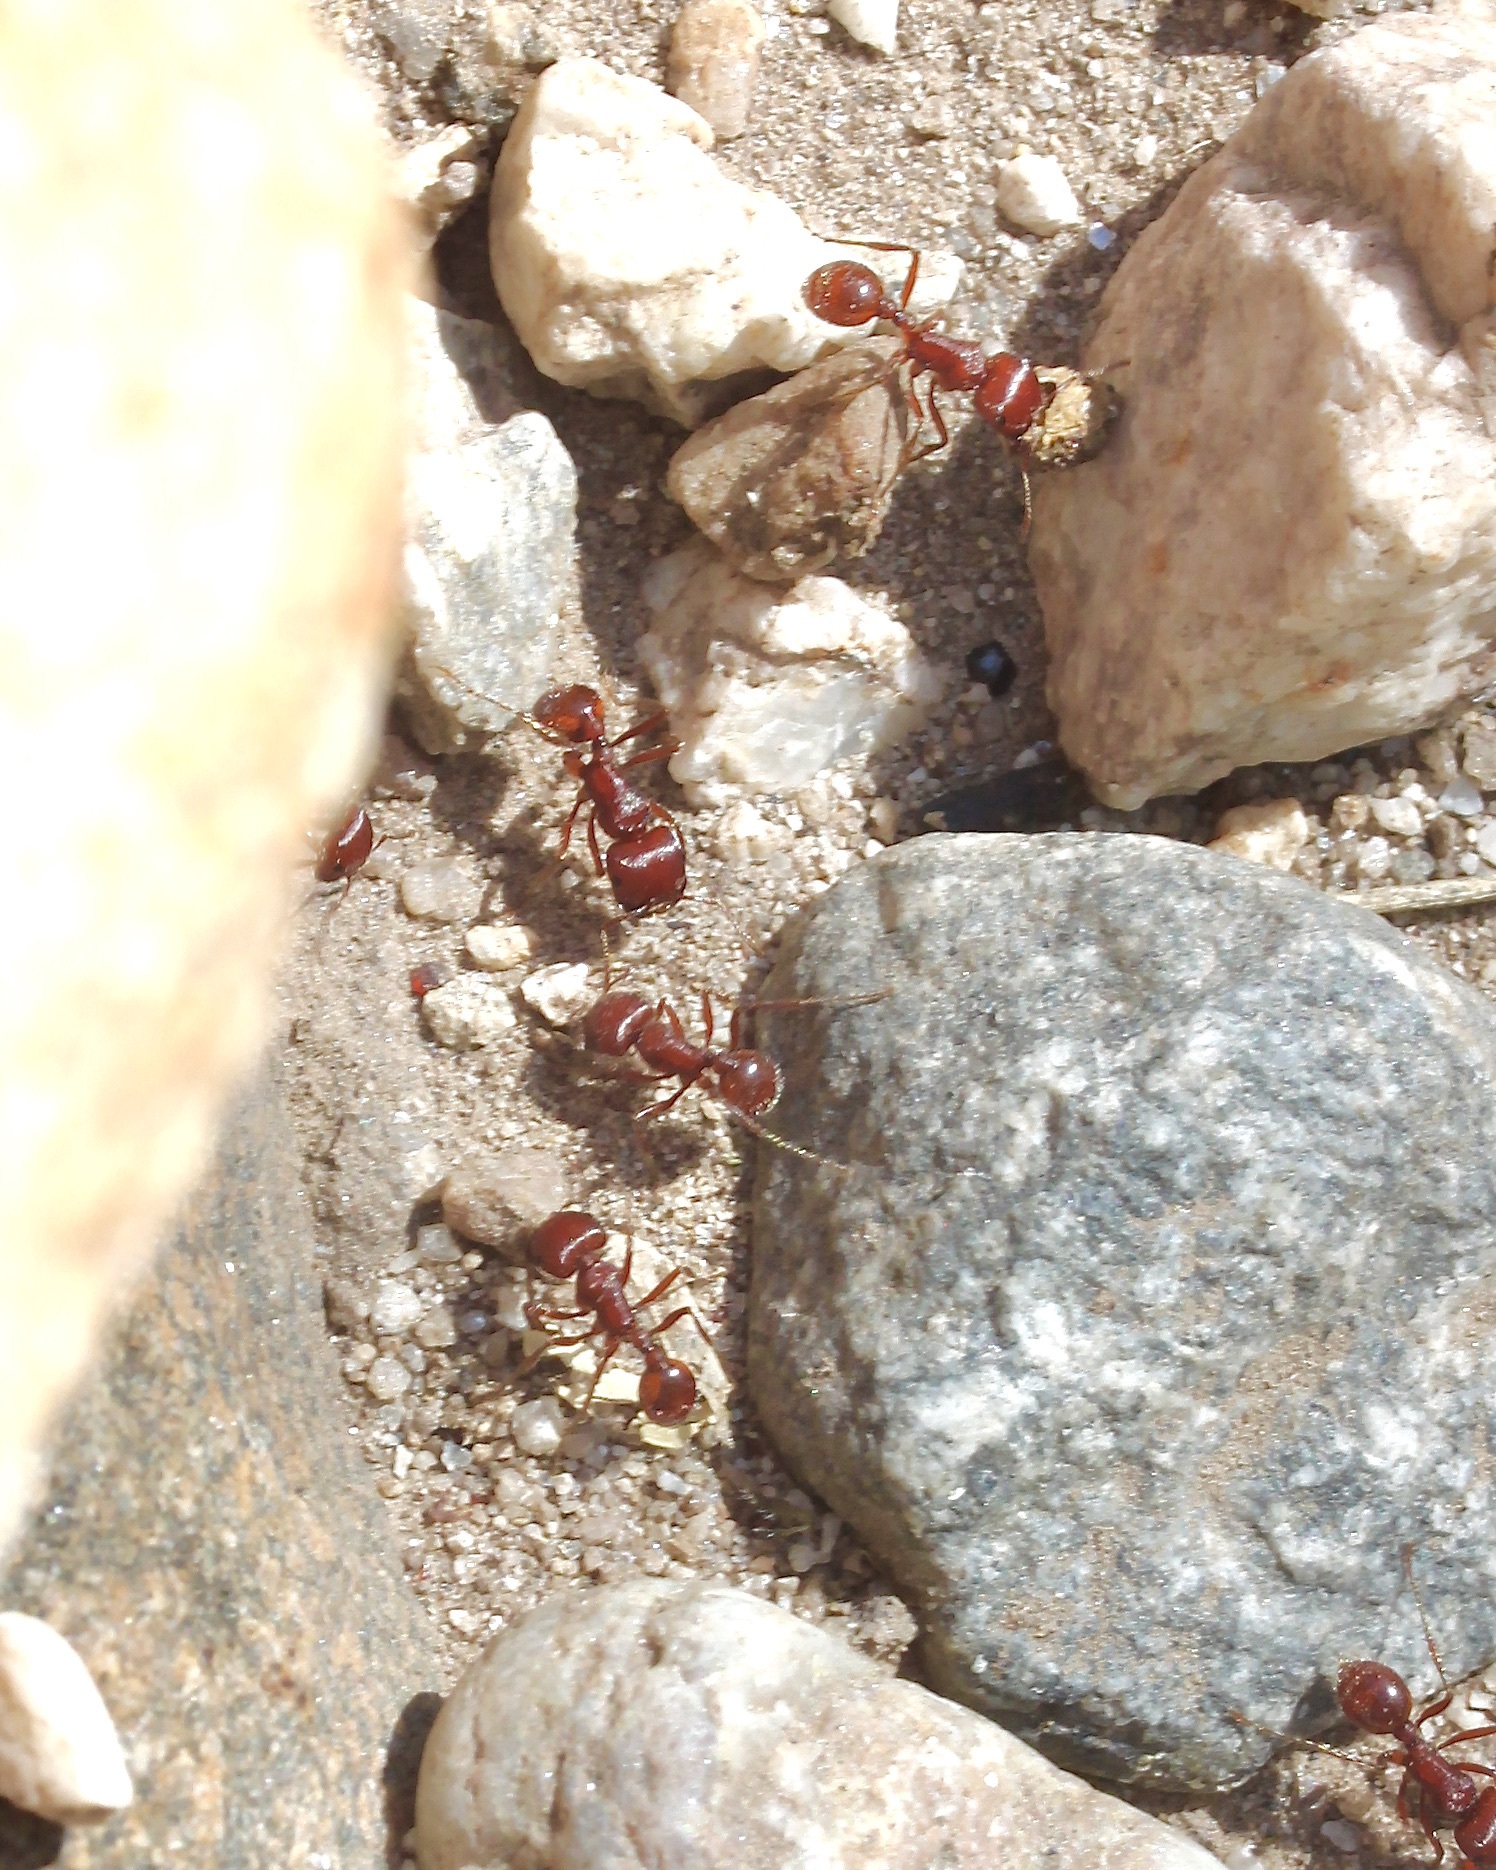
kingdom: Animalia
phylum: Arthropoda
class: Insecta
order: Hymenoptera
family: Formicidae
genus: Pogonomyrmex
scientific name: Pogonomyrmex barbatus
